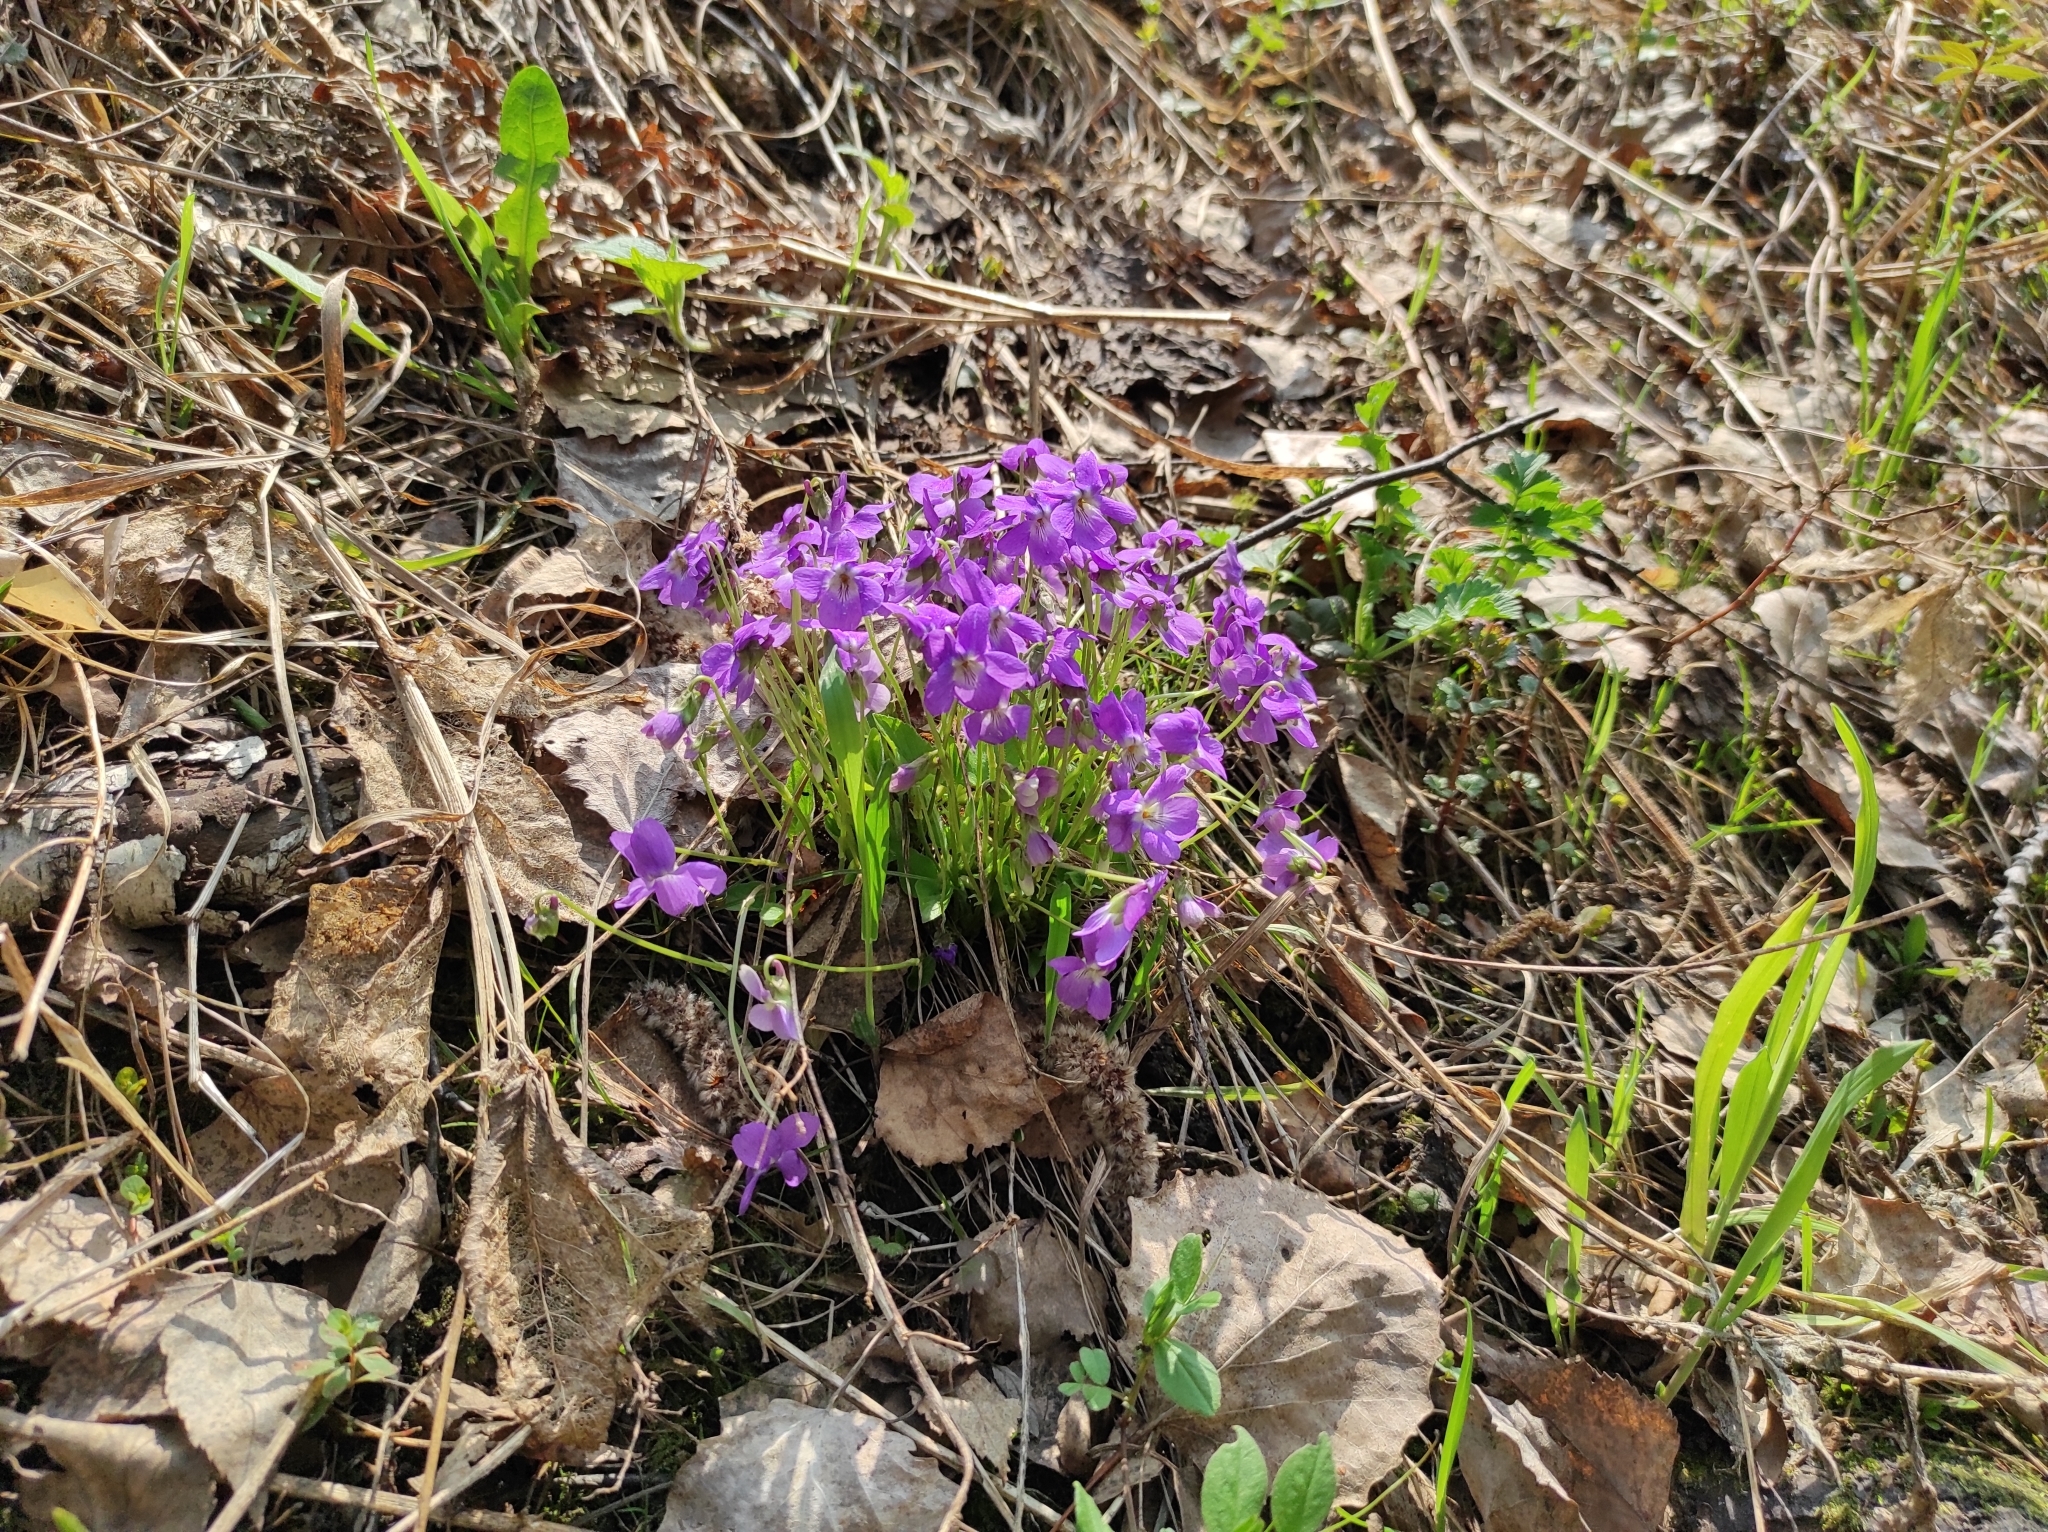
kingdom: Plantae
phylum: Tracheophyta
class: Magnoliopsida
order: Malpighiales
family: Violaceae
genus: Viola
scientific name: Viola hirta
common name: Hairy violet
